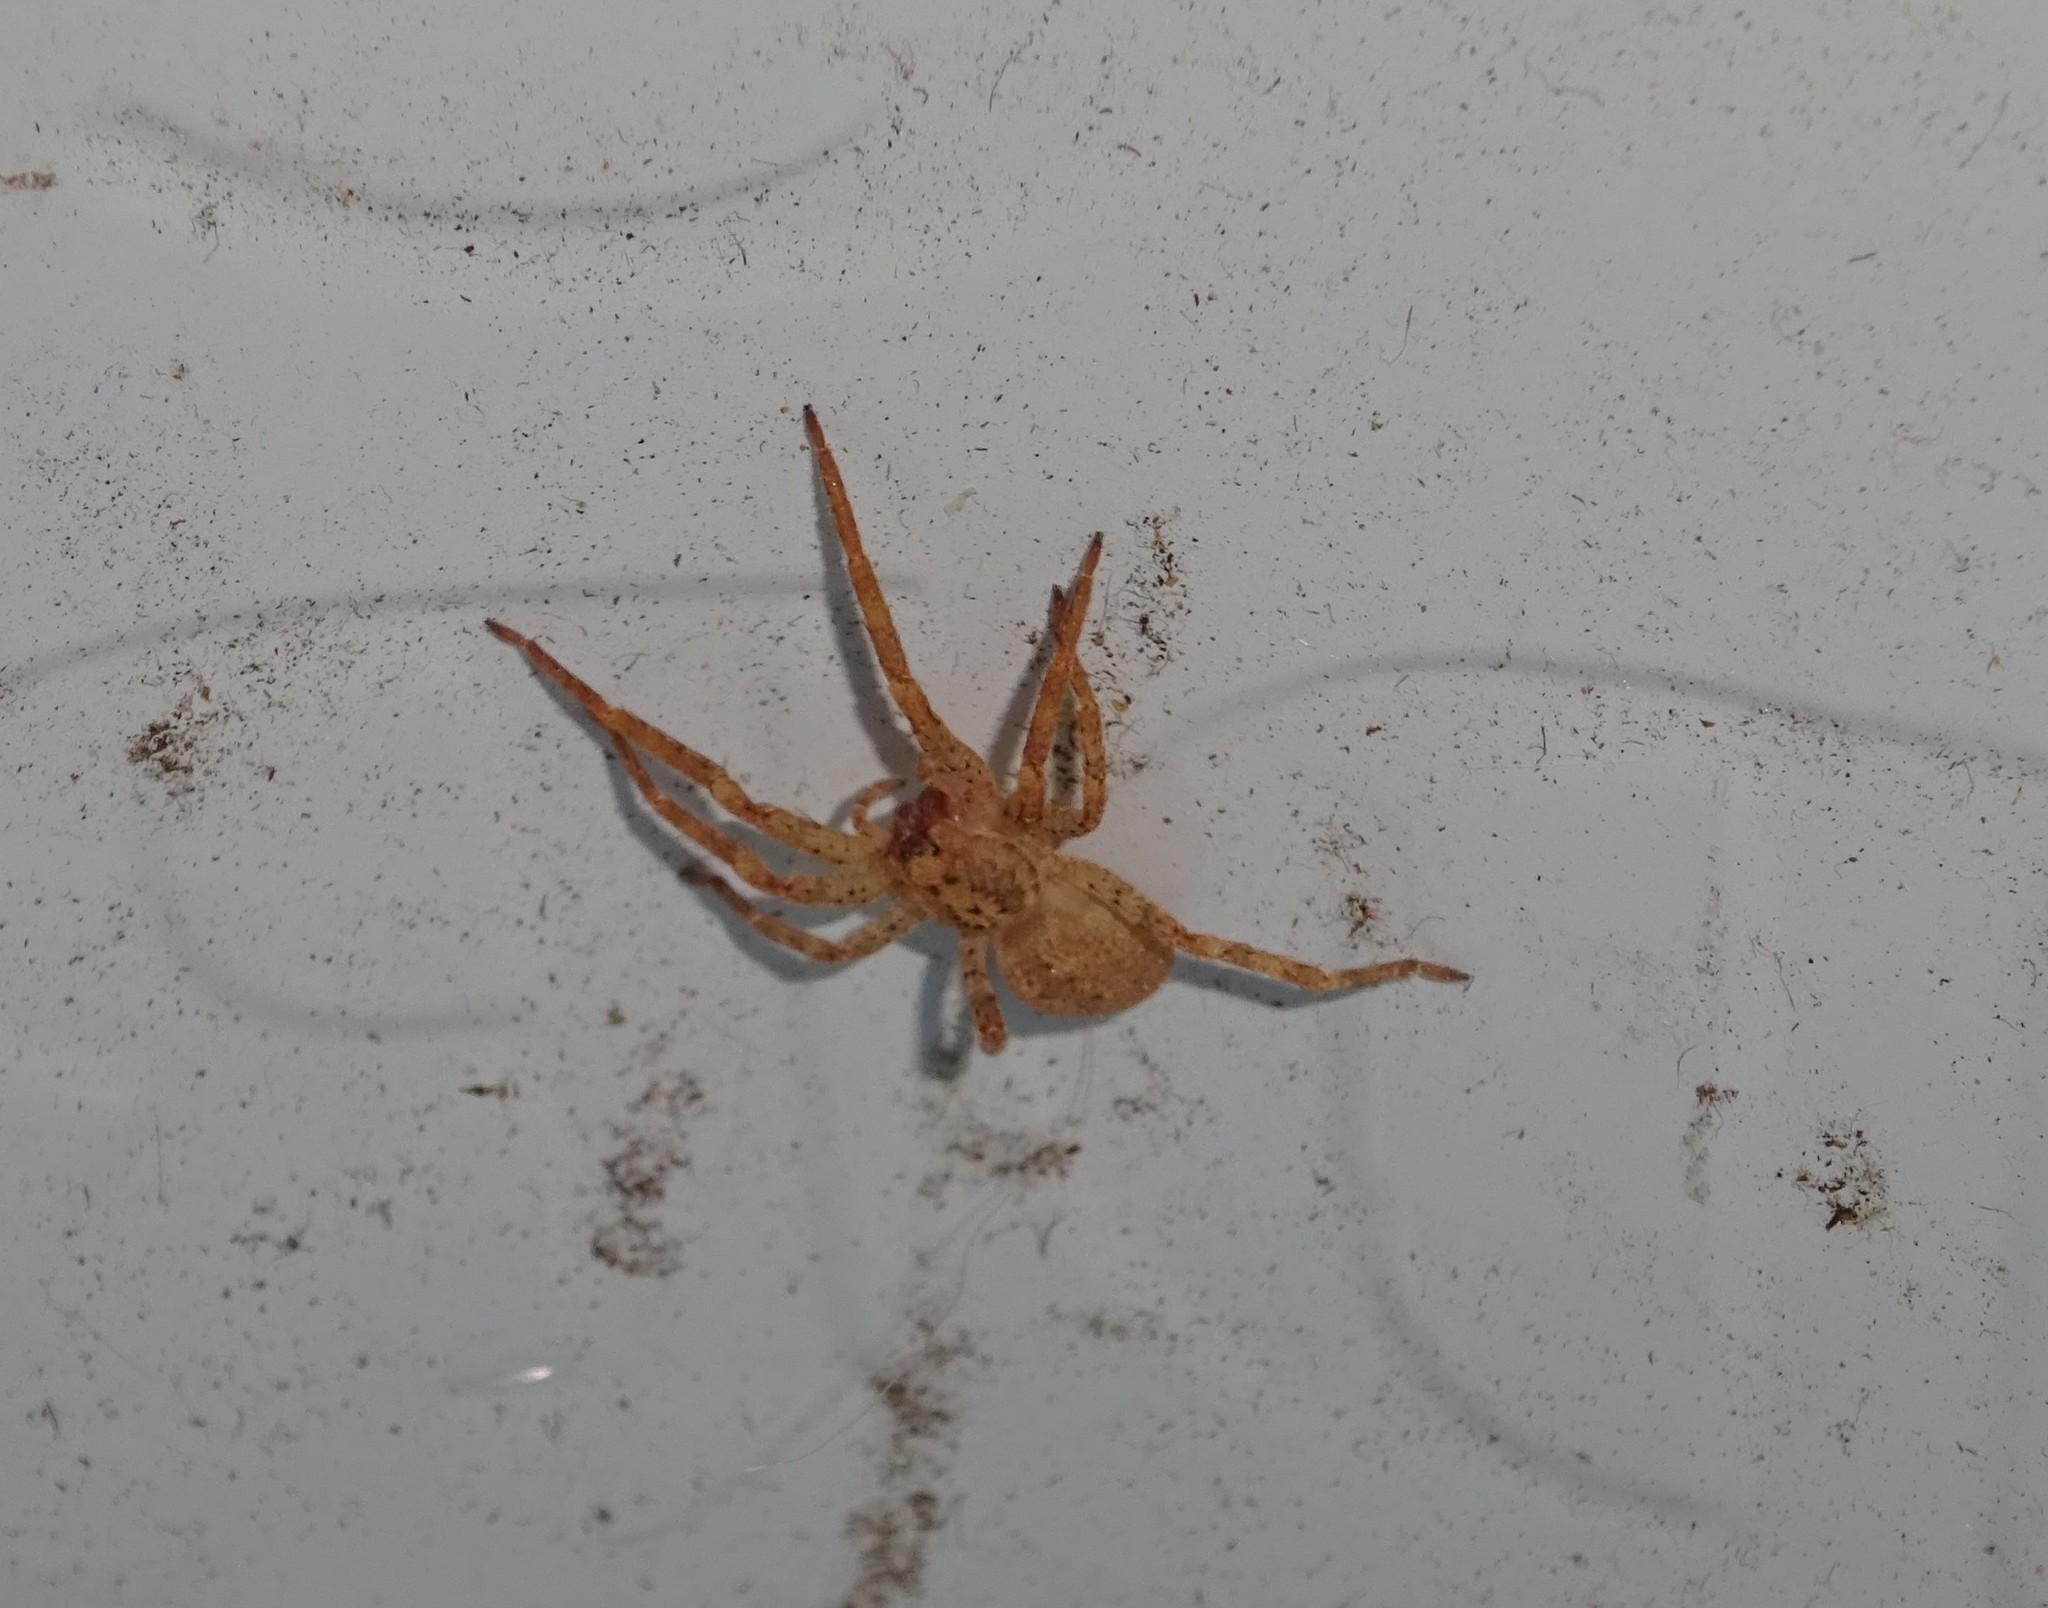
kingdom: Animalia
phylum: Arthropoda
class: Arachnida
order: Araneae
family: Zoropsidae
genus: Zoropsis
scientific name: Zoropsis spinimana
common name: Zoropsid spider
